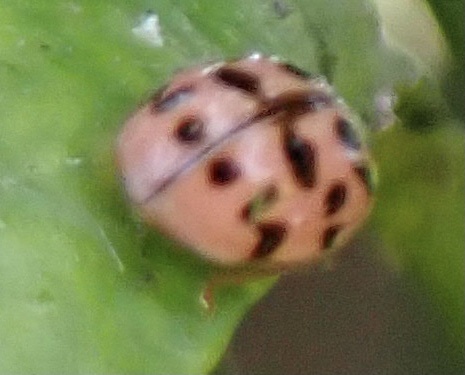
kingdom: Animalia
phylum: Arthropoda
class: Insecta
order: Coleoptera
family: Coccinellidae
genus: Oenopia
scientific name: Oenopia conglobata
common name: Ladybird beetle
